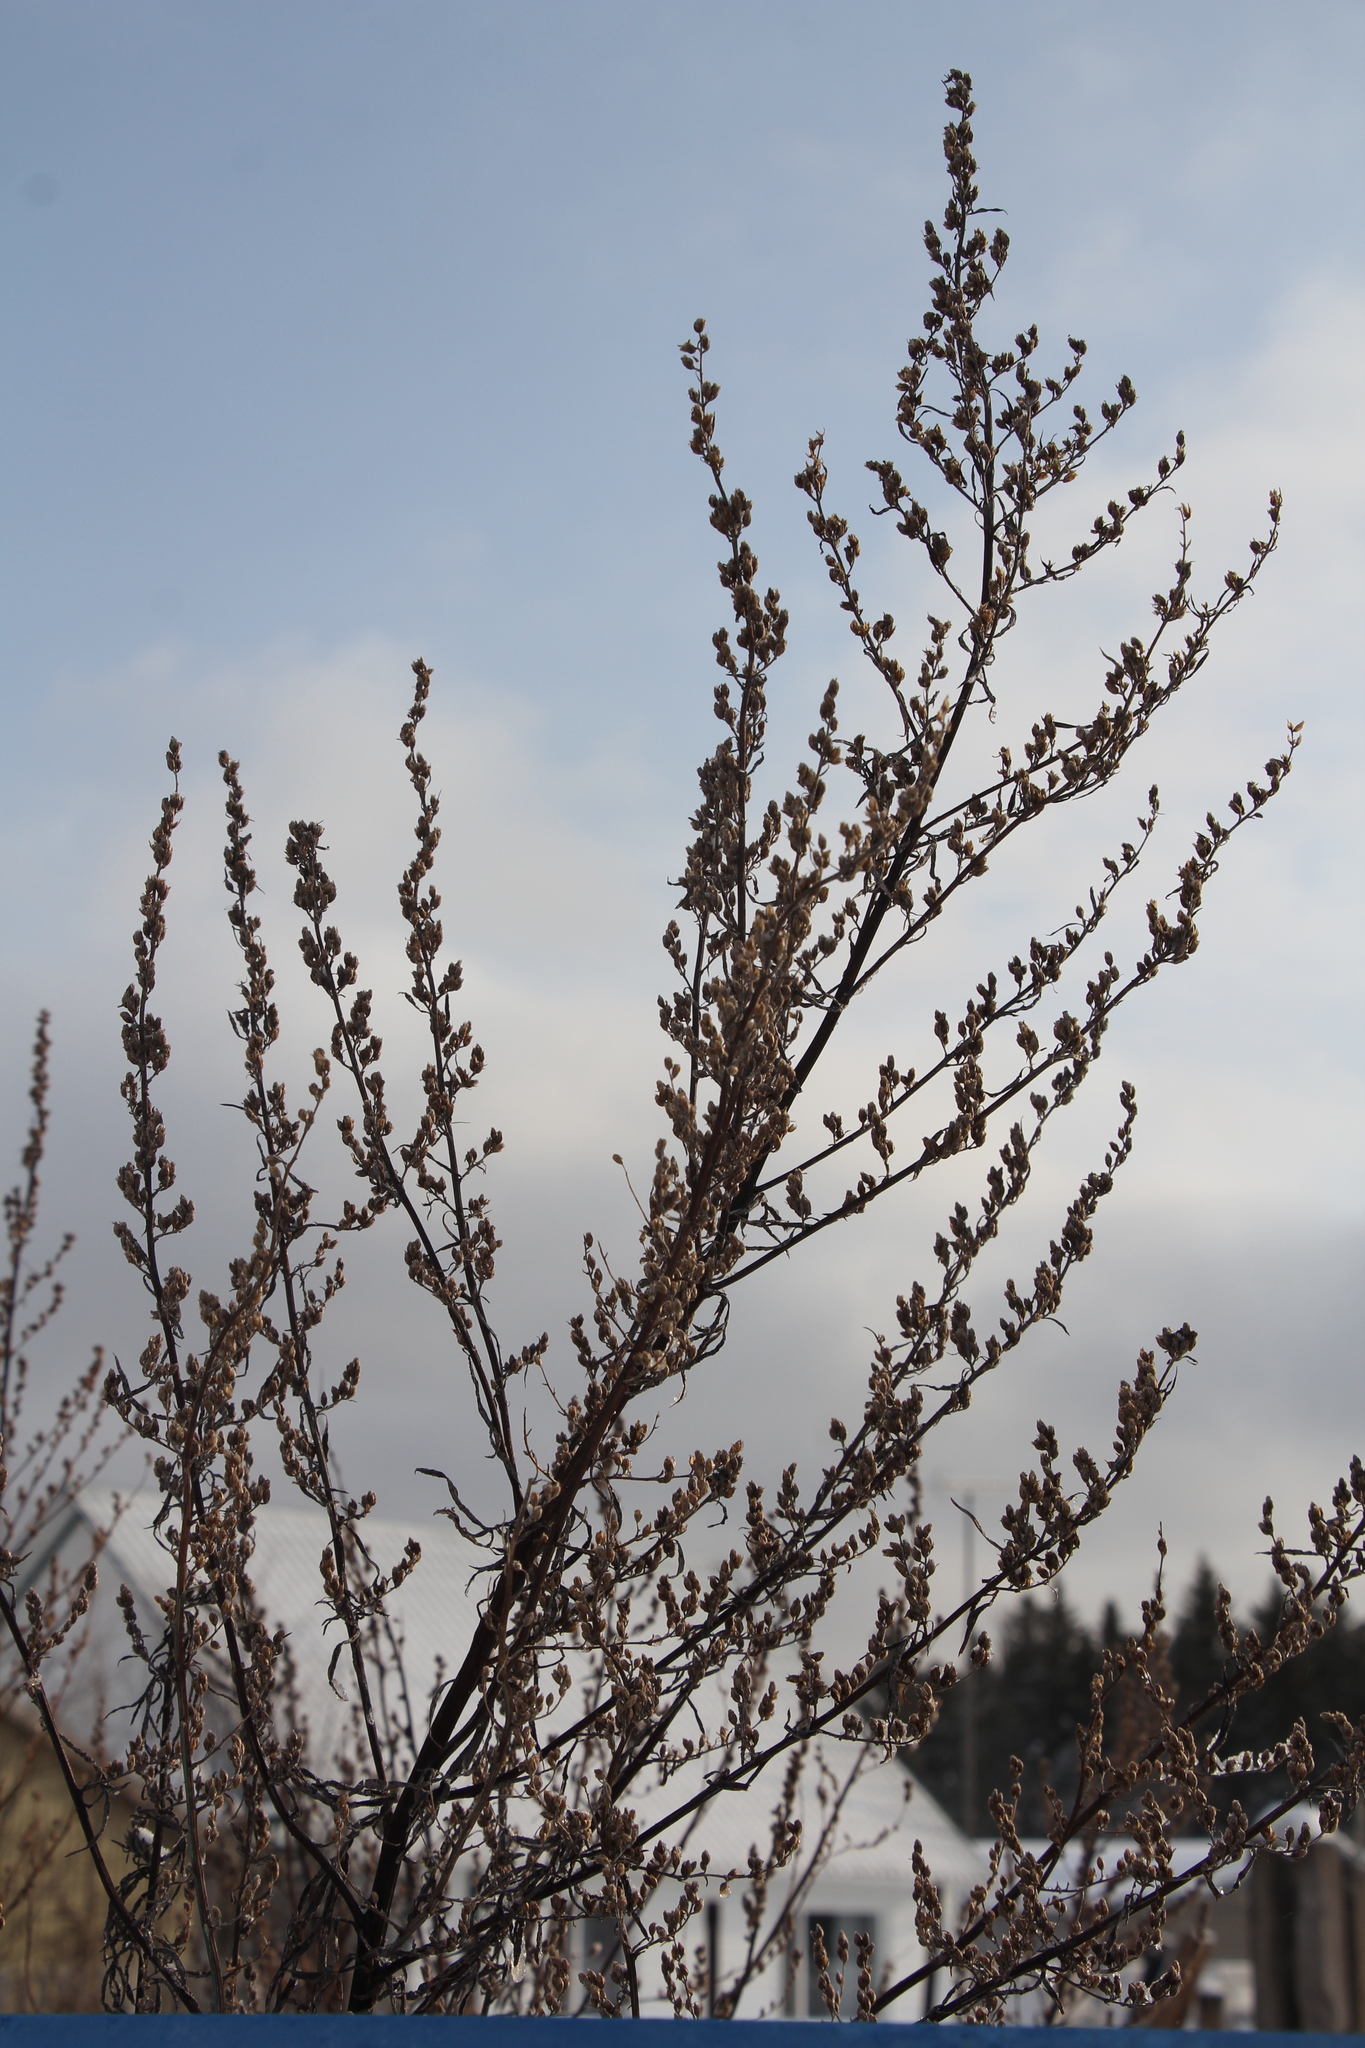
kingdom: Plantae
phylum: Tracheophyta
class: Magnoliopsida
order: Asterales
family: Asteraceae
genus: Artemisia
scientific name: Artemisia vulgaris
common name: Mugwort
